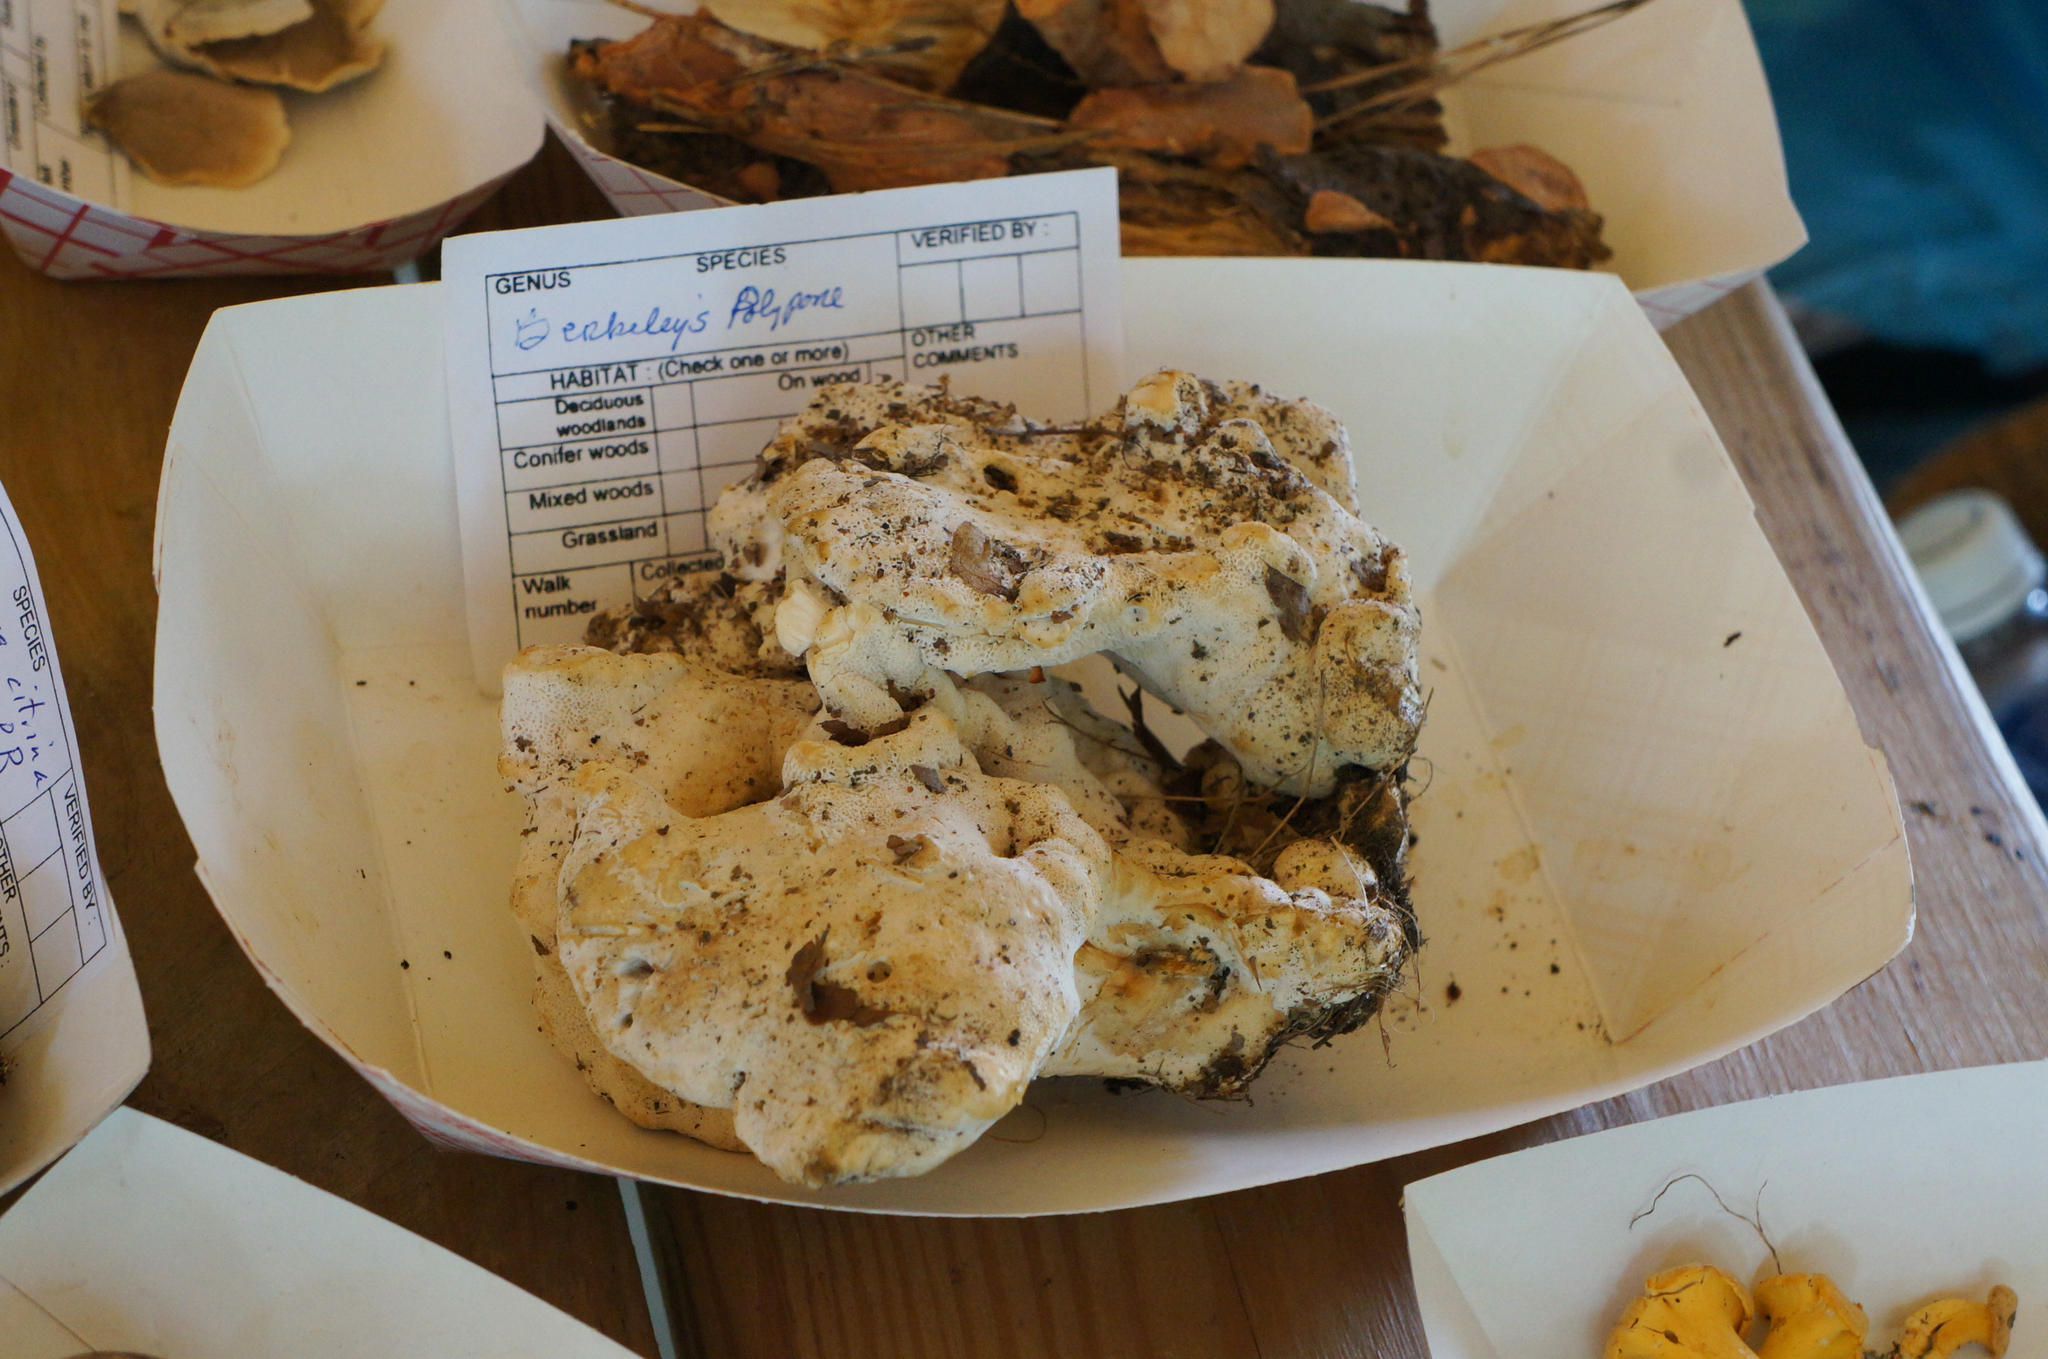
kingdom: Fungi
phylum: Basidiomycota
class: Agaricomycetes
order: Russulales
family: Bondarzewiaceae
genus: Bondarzewia
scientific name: Bondarzewia berkeleyi
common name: Berkeley's polypore
